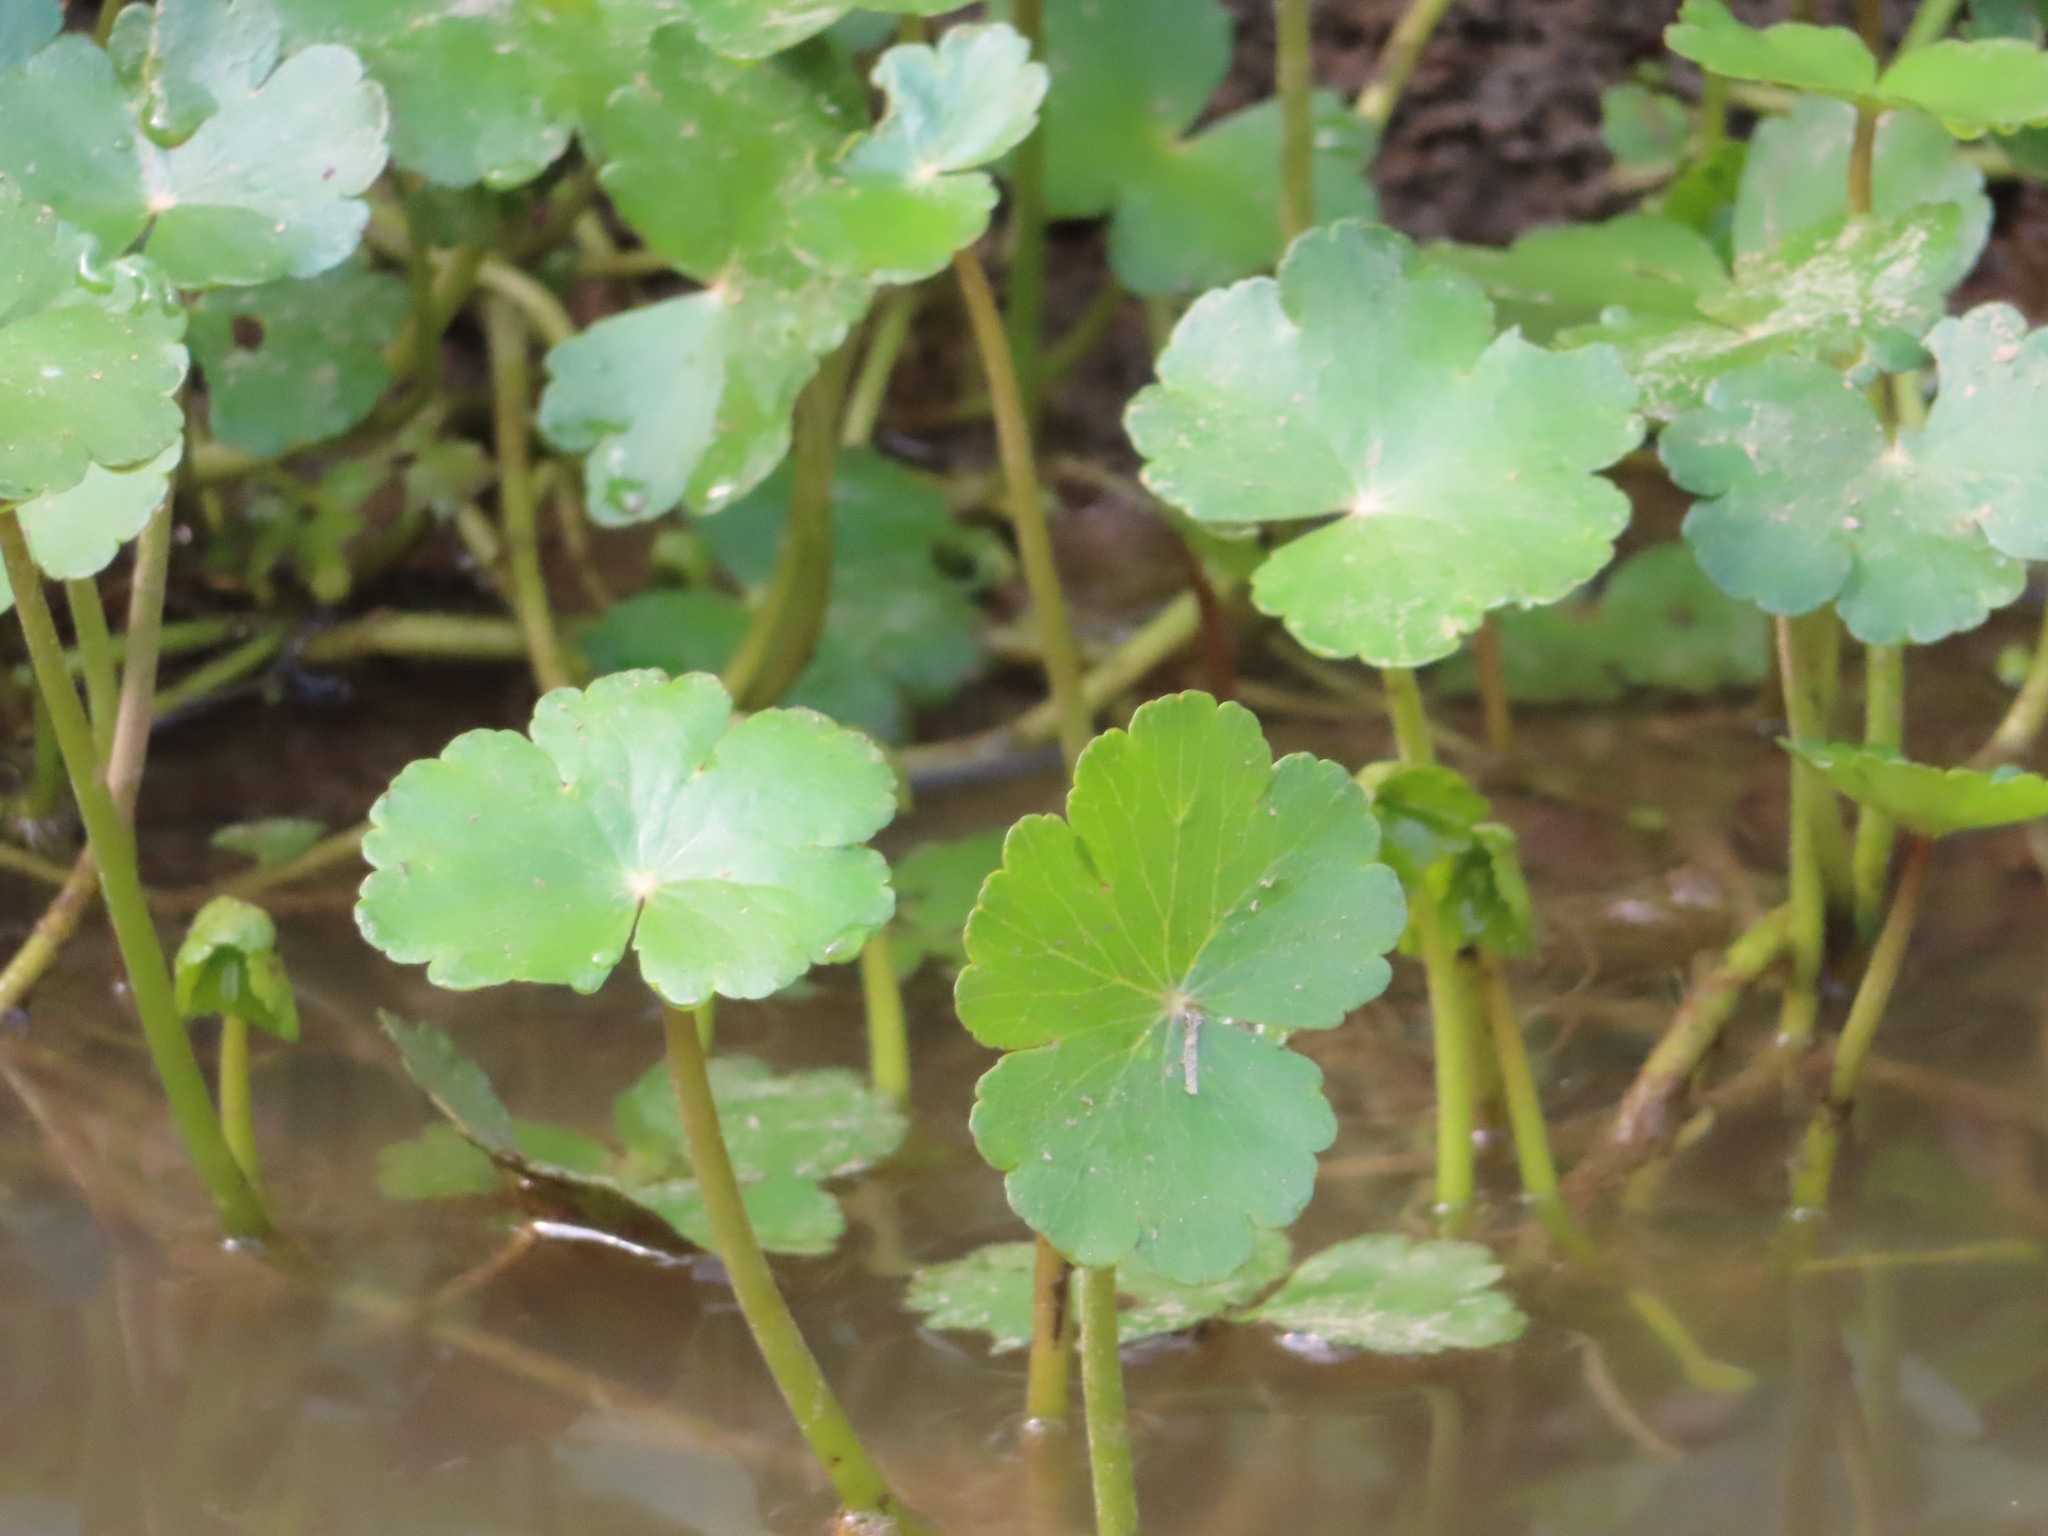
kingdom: Plantae
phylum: Tracheophyta
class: Magnoliopsida
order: Apiales
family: Araliaceae
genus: Hydrocotyle
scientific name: Hydrocotyle ranunculoides
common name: Floating pennywort
